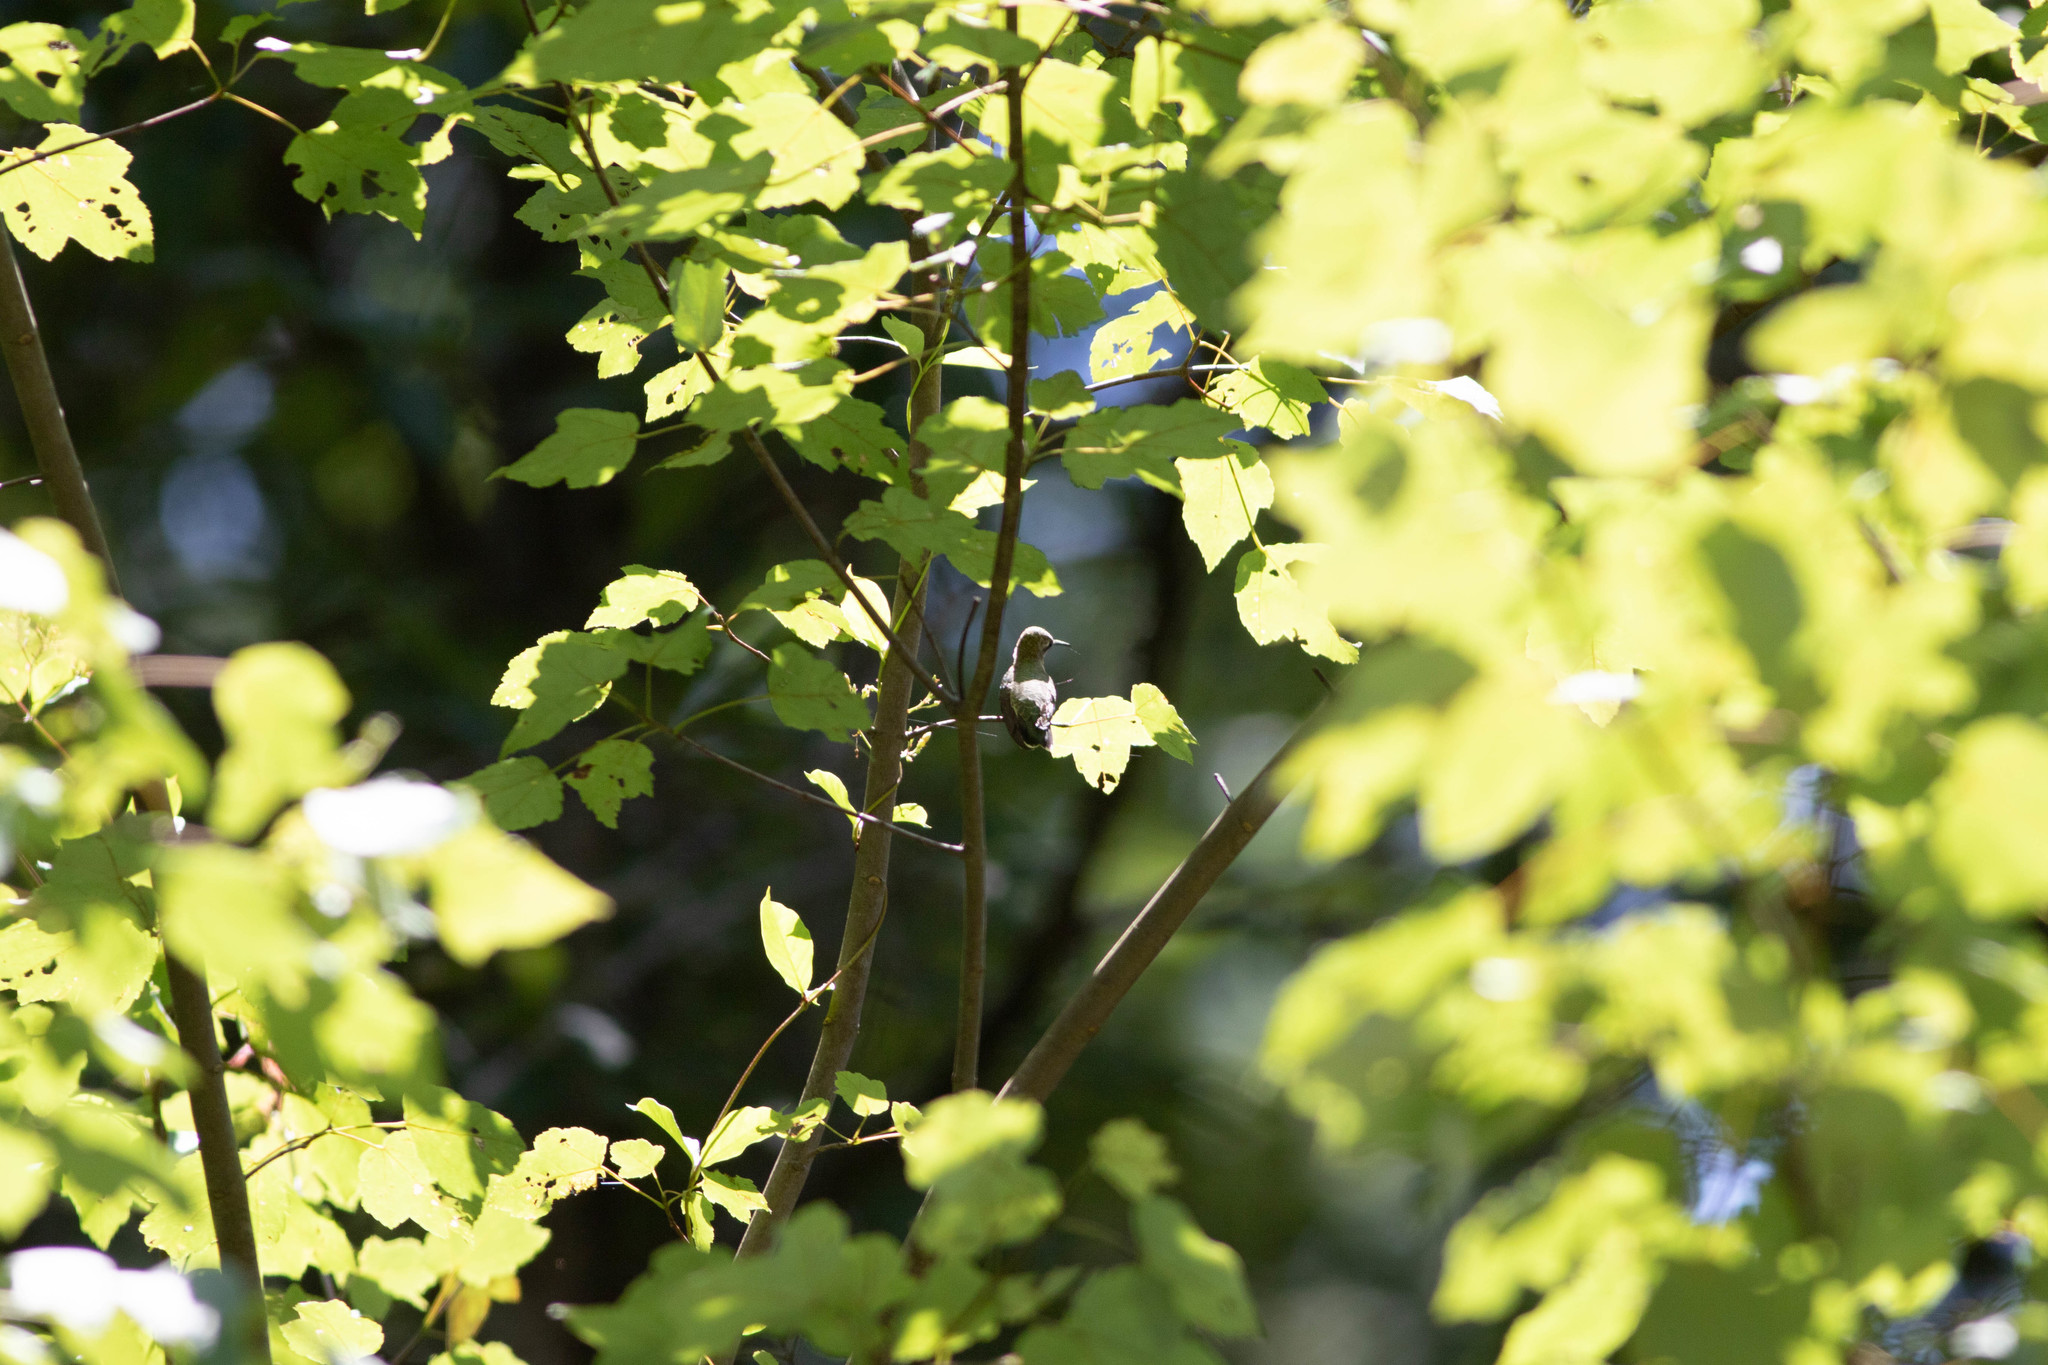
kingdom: Animalia
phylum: Chordata
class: Aves
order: Apodiformes
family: Trochilidae
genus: Archilochus
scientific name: Archilochus colubris
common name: Ruby-throated hummingbird
